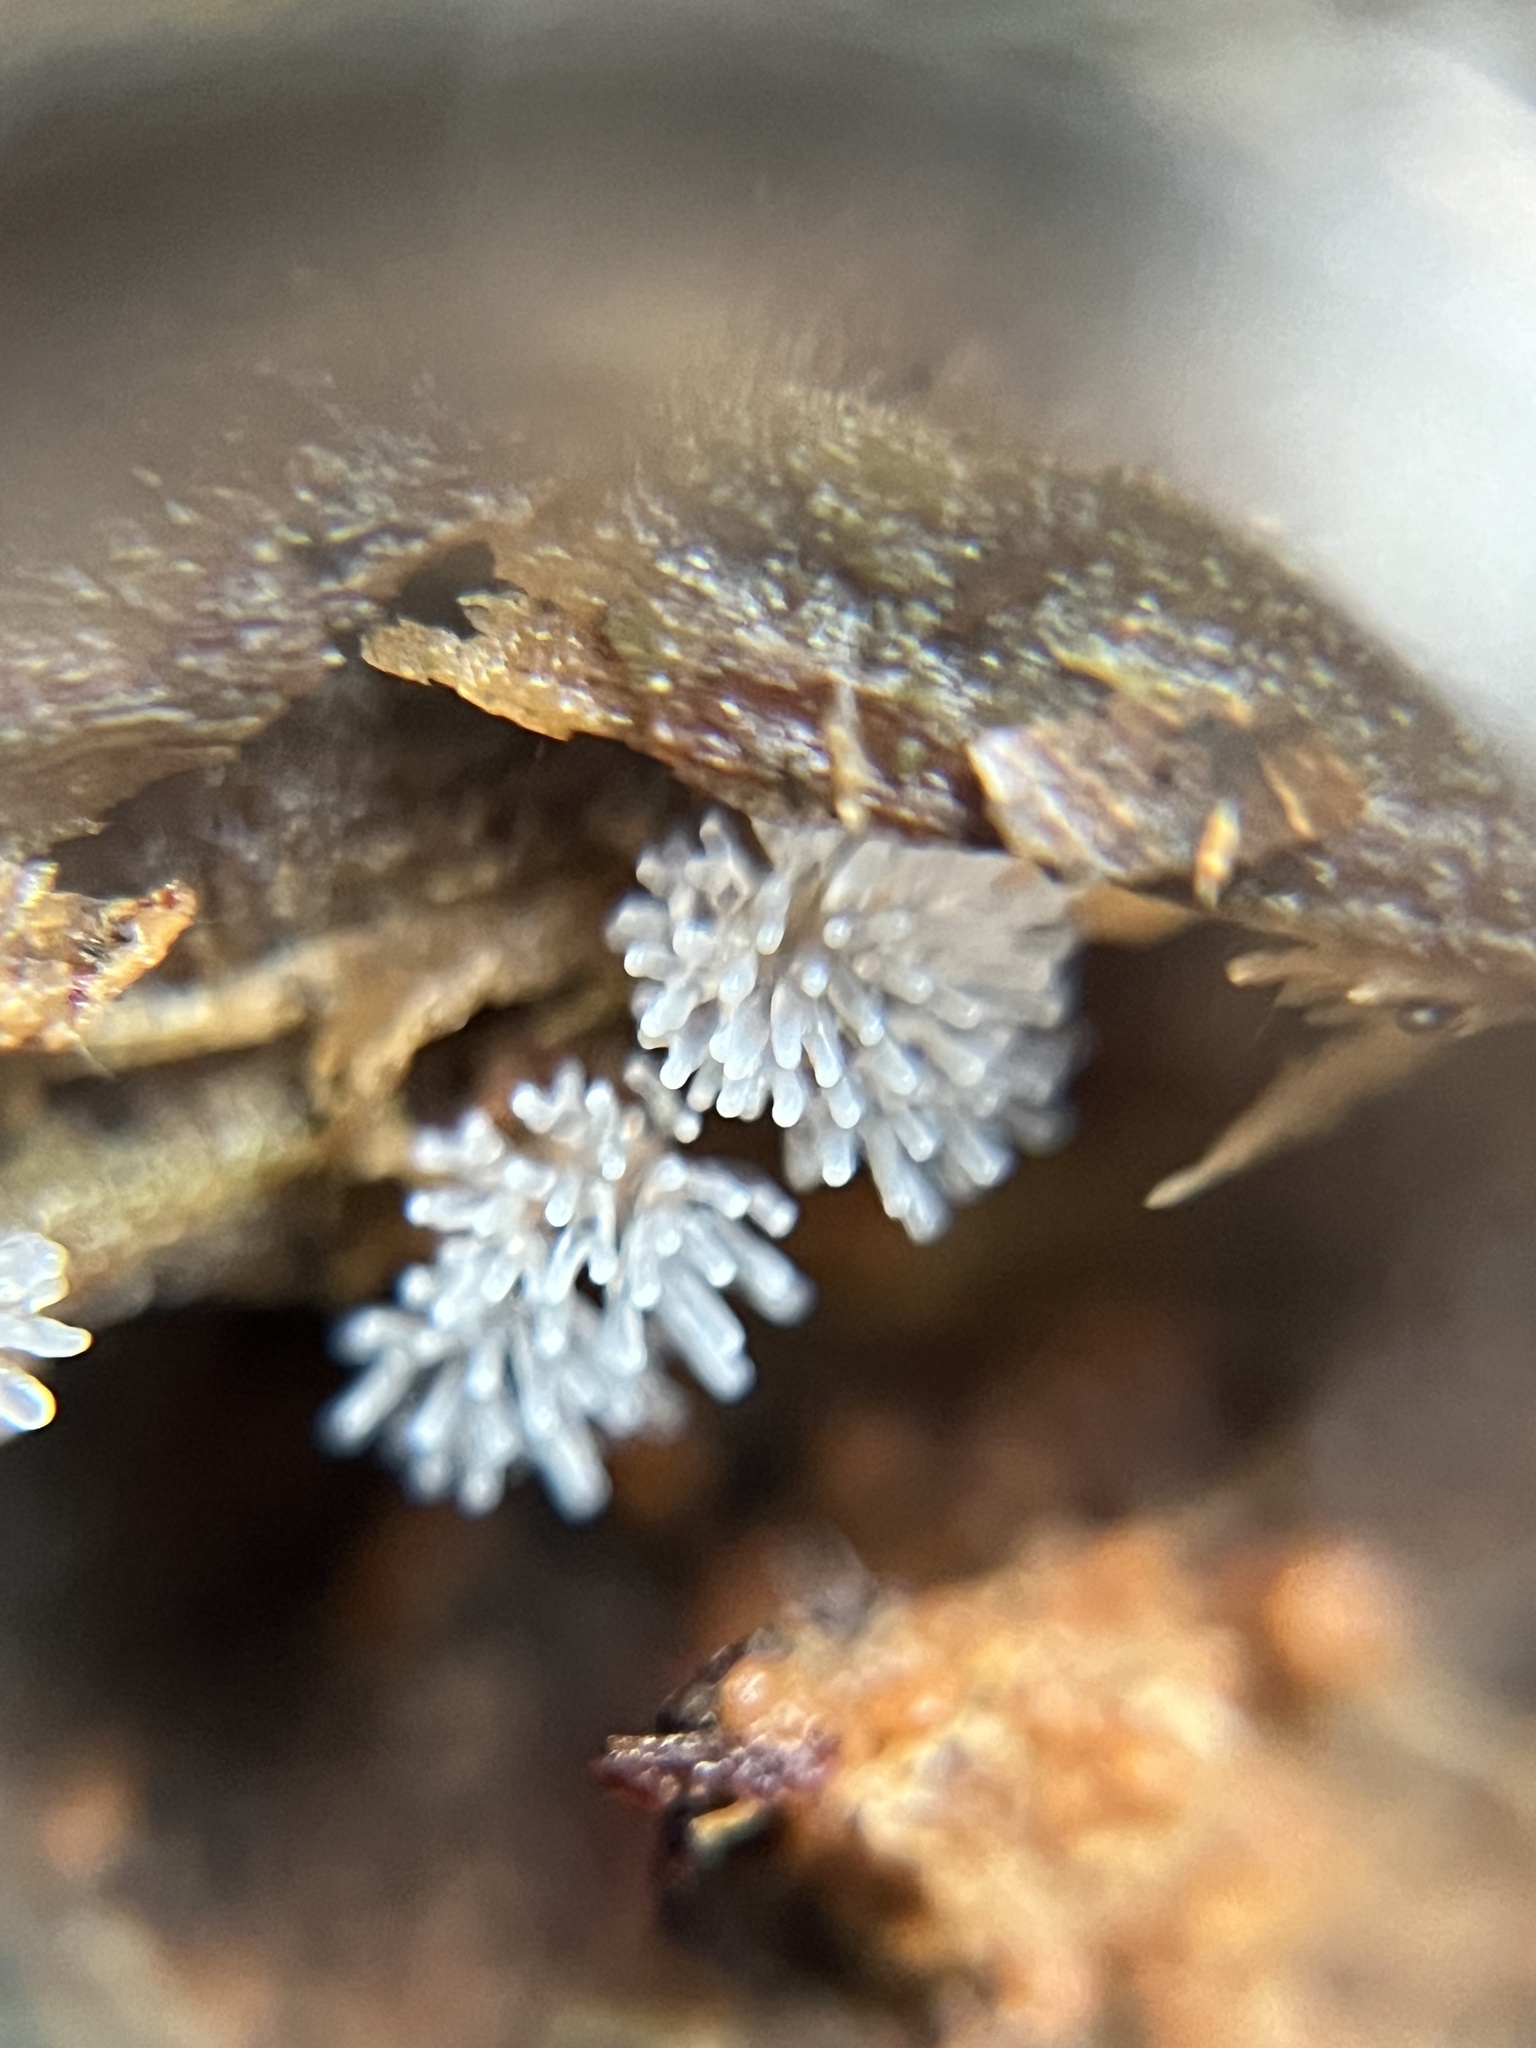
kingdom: Protozoa
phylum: Mycetozoa
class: Protosteliomycetes
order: Ceratiomyxales
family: Ceratiomyxaceae
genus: Ceratiomyxa
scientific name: Ceratiomyxa fruticulosa
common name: Honeycomb coral slime mold
